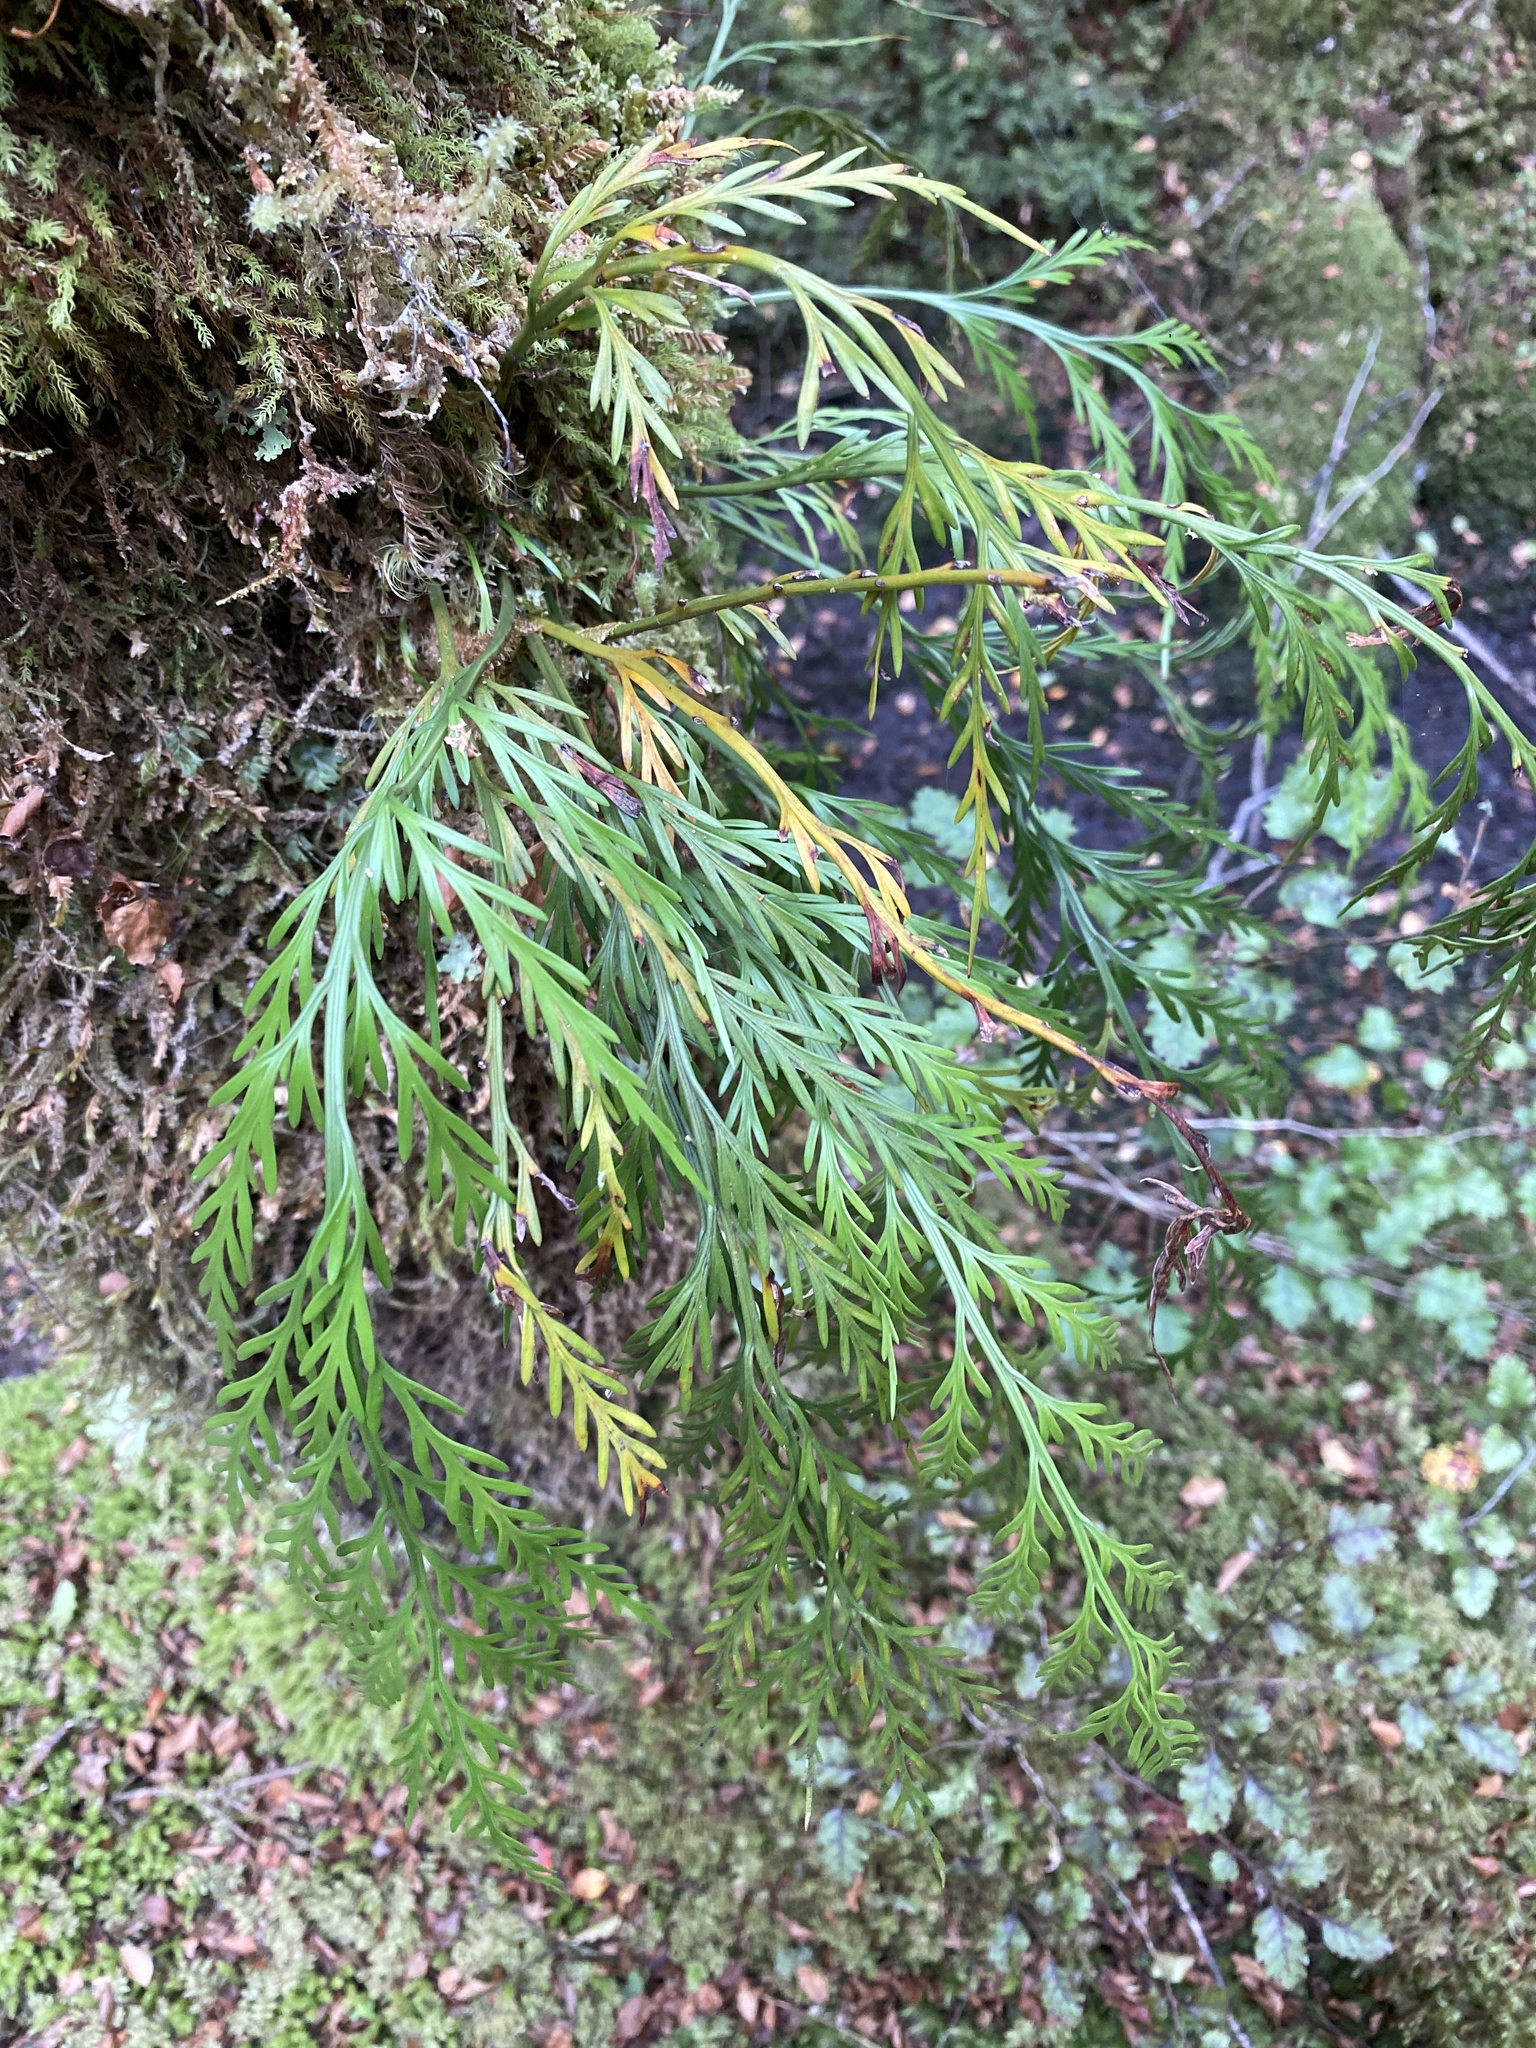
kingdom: Plantae
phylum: Tracheophyta
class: Polypodiopsida
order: Polypodiales
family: Aspleniaceae
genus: Asplenium
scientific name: Asplenium flaccidum
